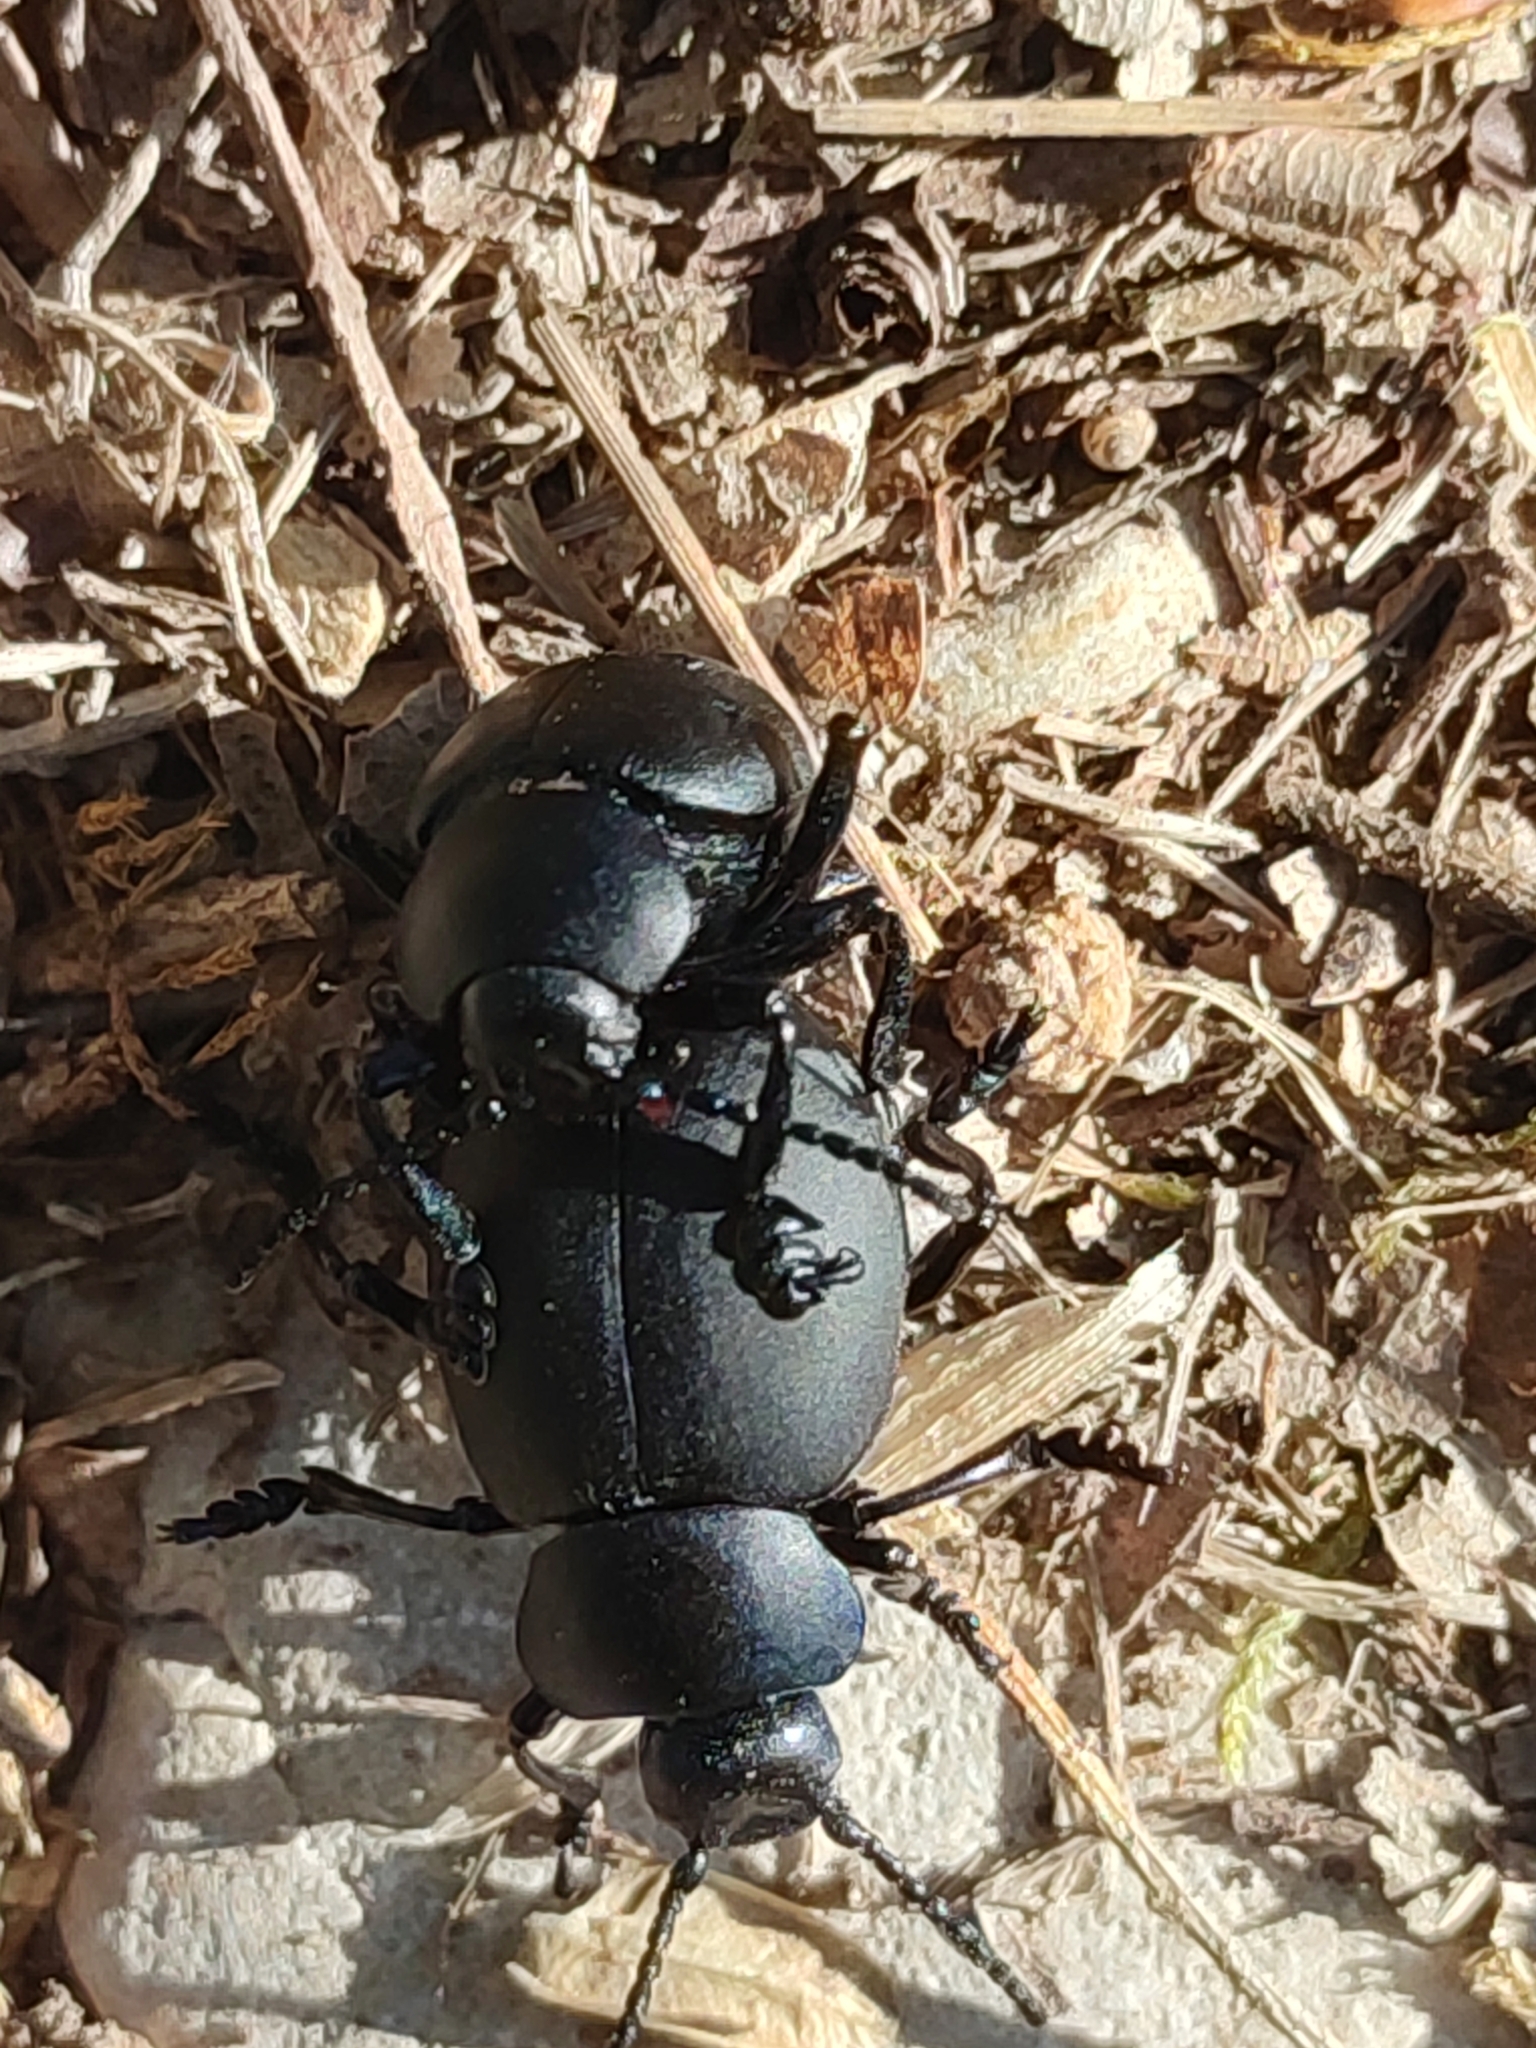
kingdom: Animalia
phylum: Arthropoda
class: Insecta
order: Coleoptera
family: Chrysomelidae
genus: Timarcha
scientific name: Timarcha tenebricosa
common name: Bloody-nosed beetle
